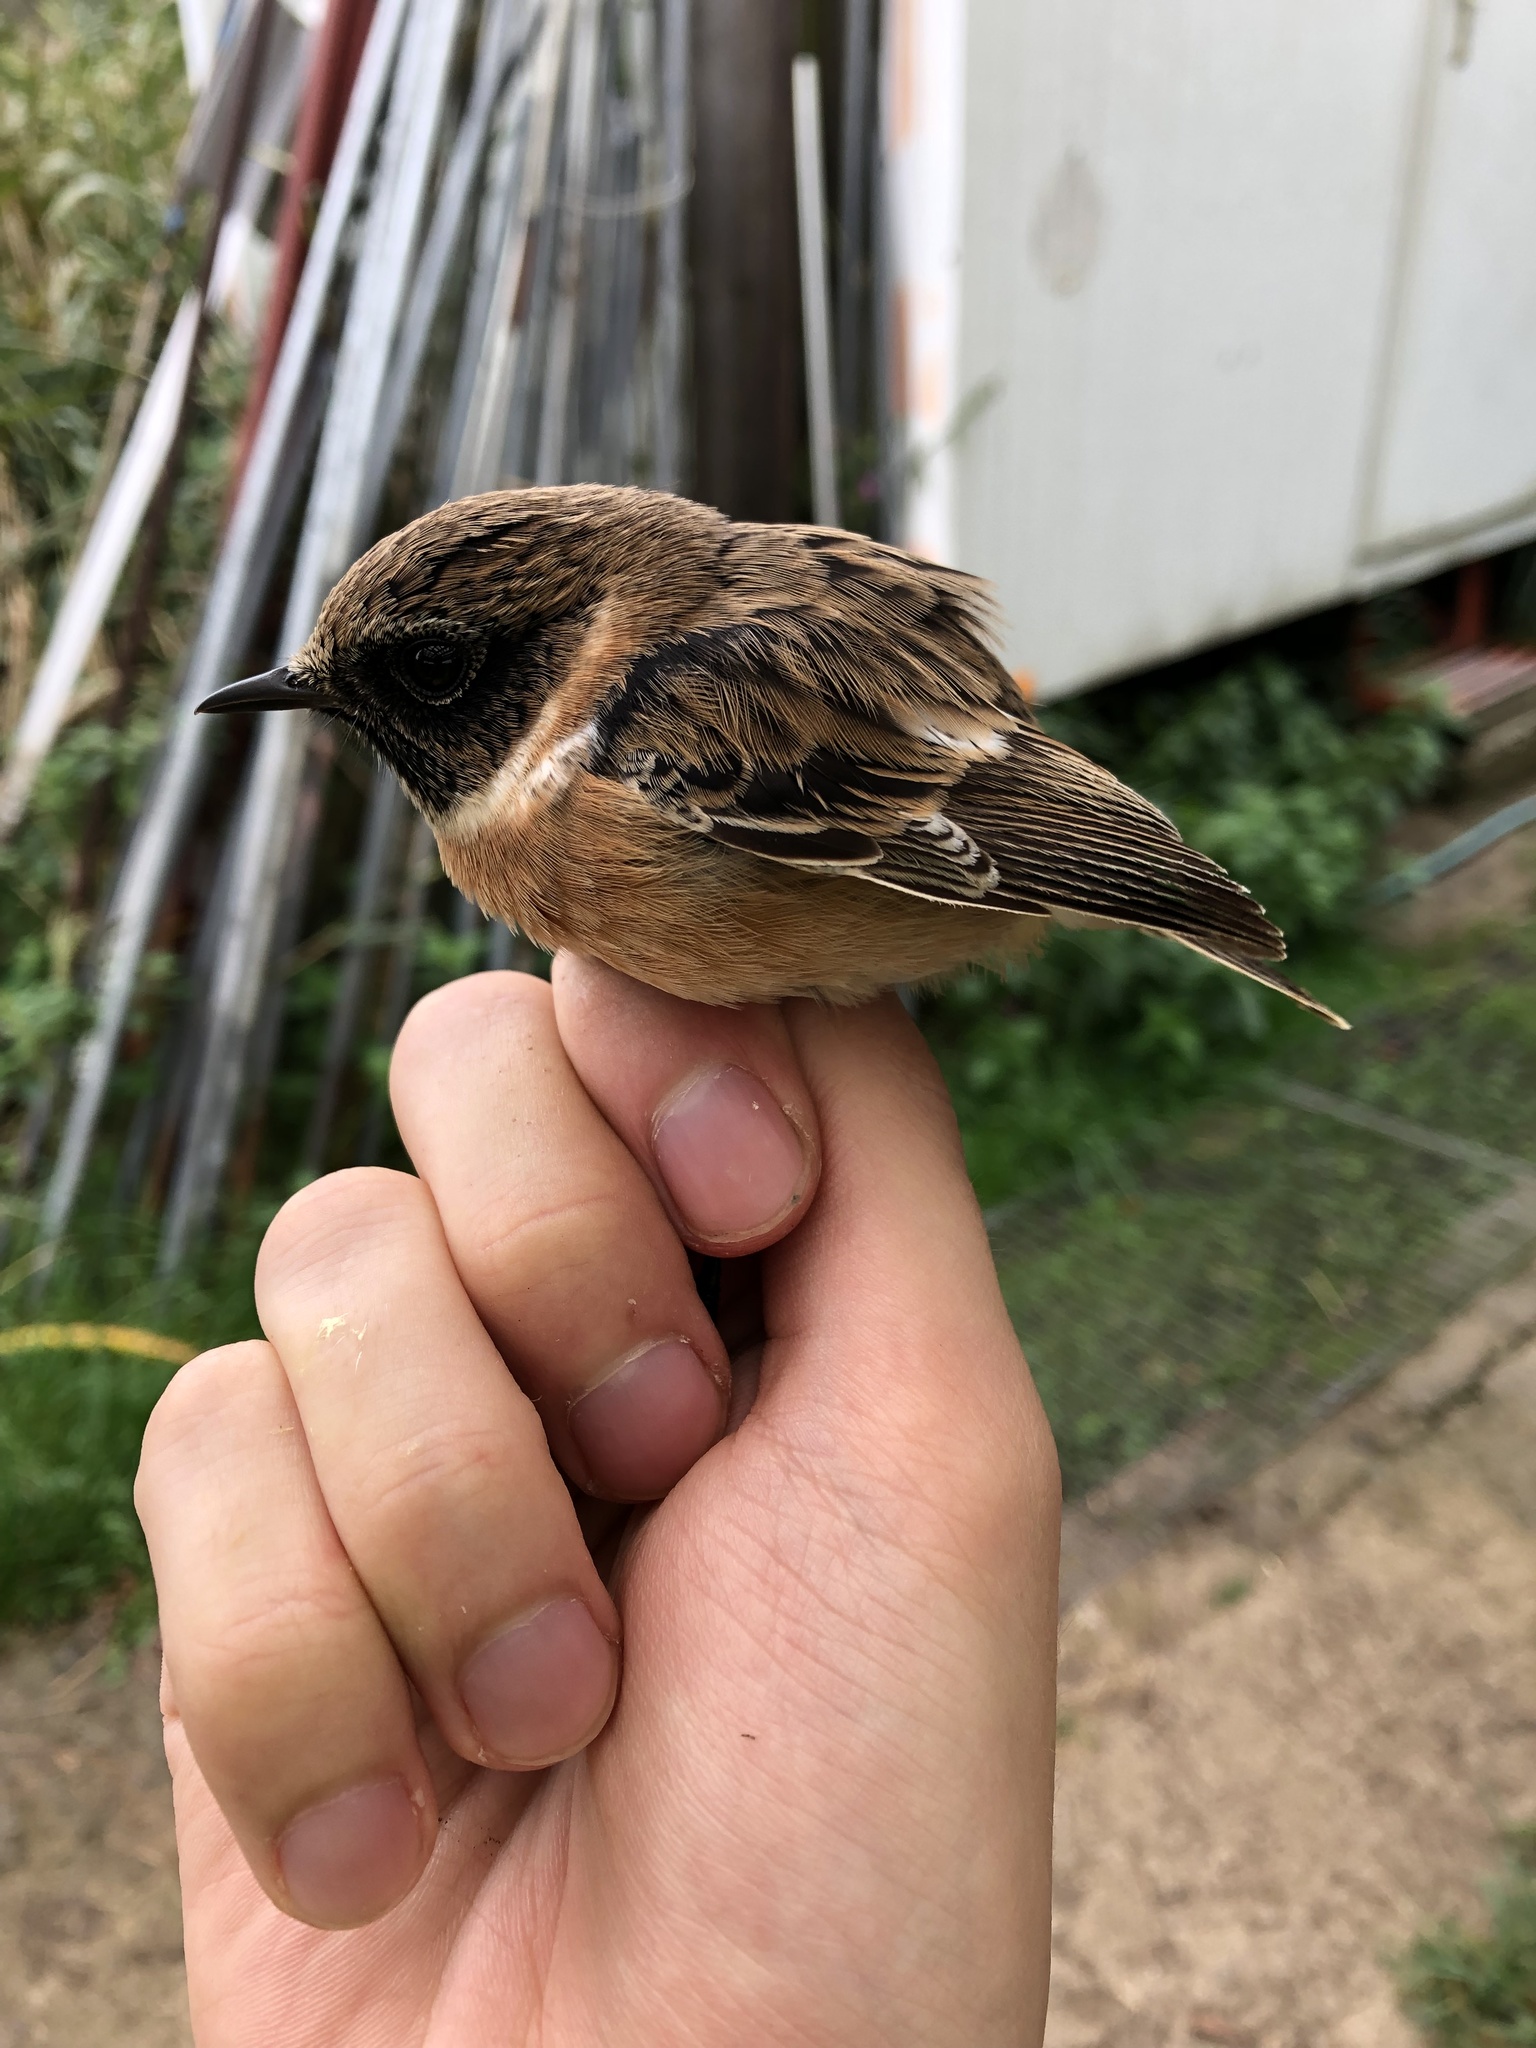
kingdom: Animalia
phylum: Chordata
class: Aves
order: Passeriformes
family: Muscicapidae
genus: Saxicola
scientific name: Saxicola rubicola
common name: European stonechat
